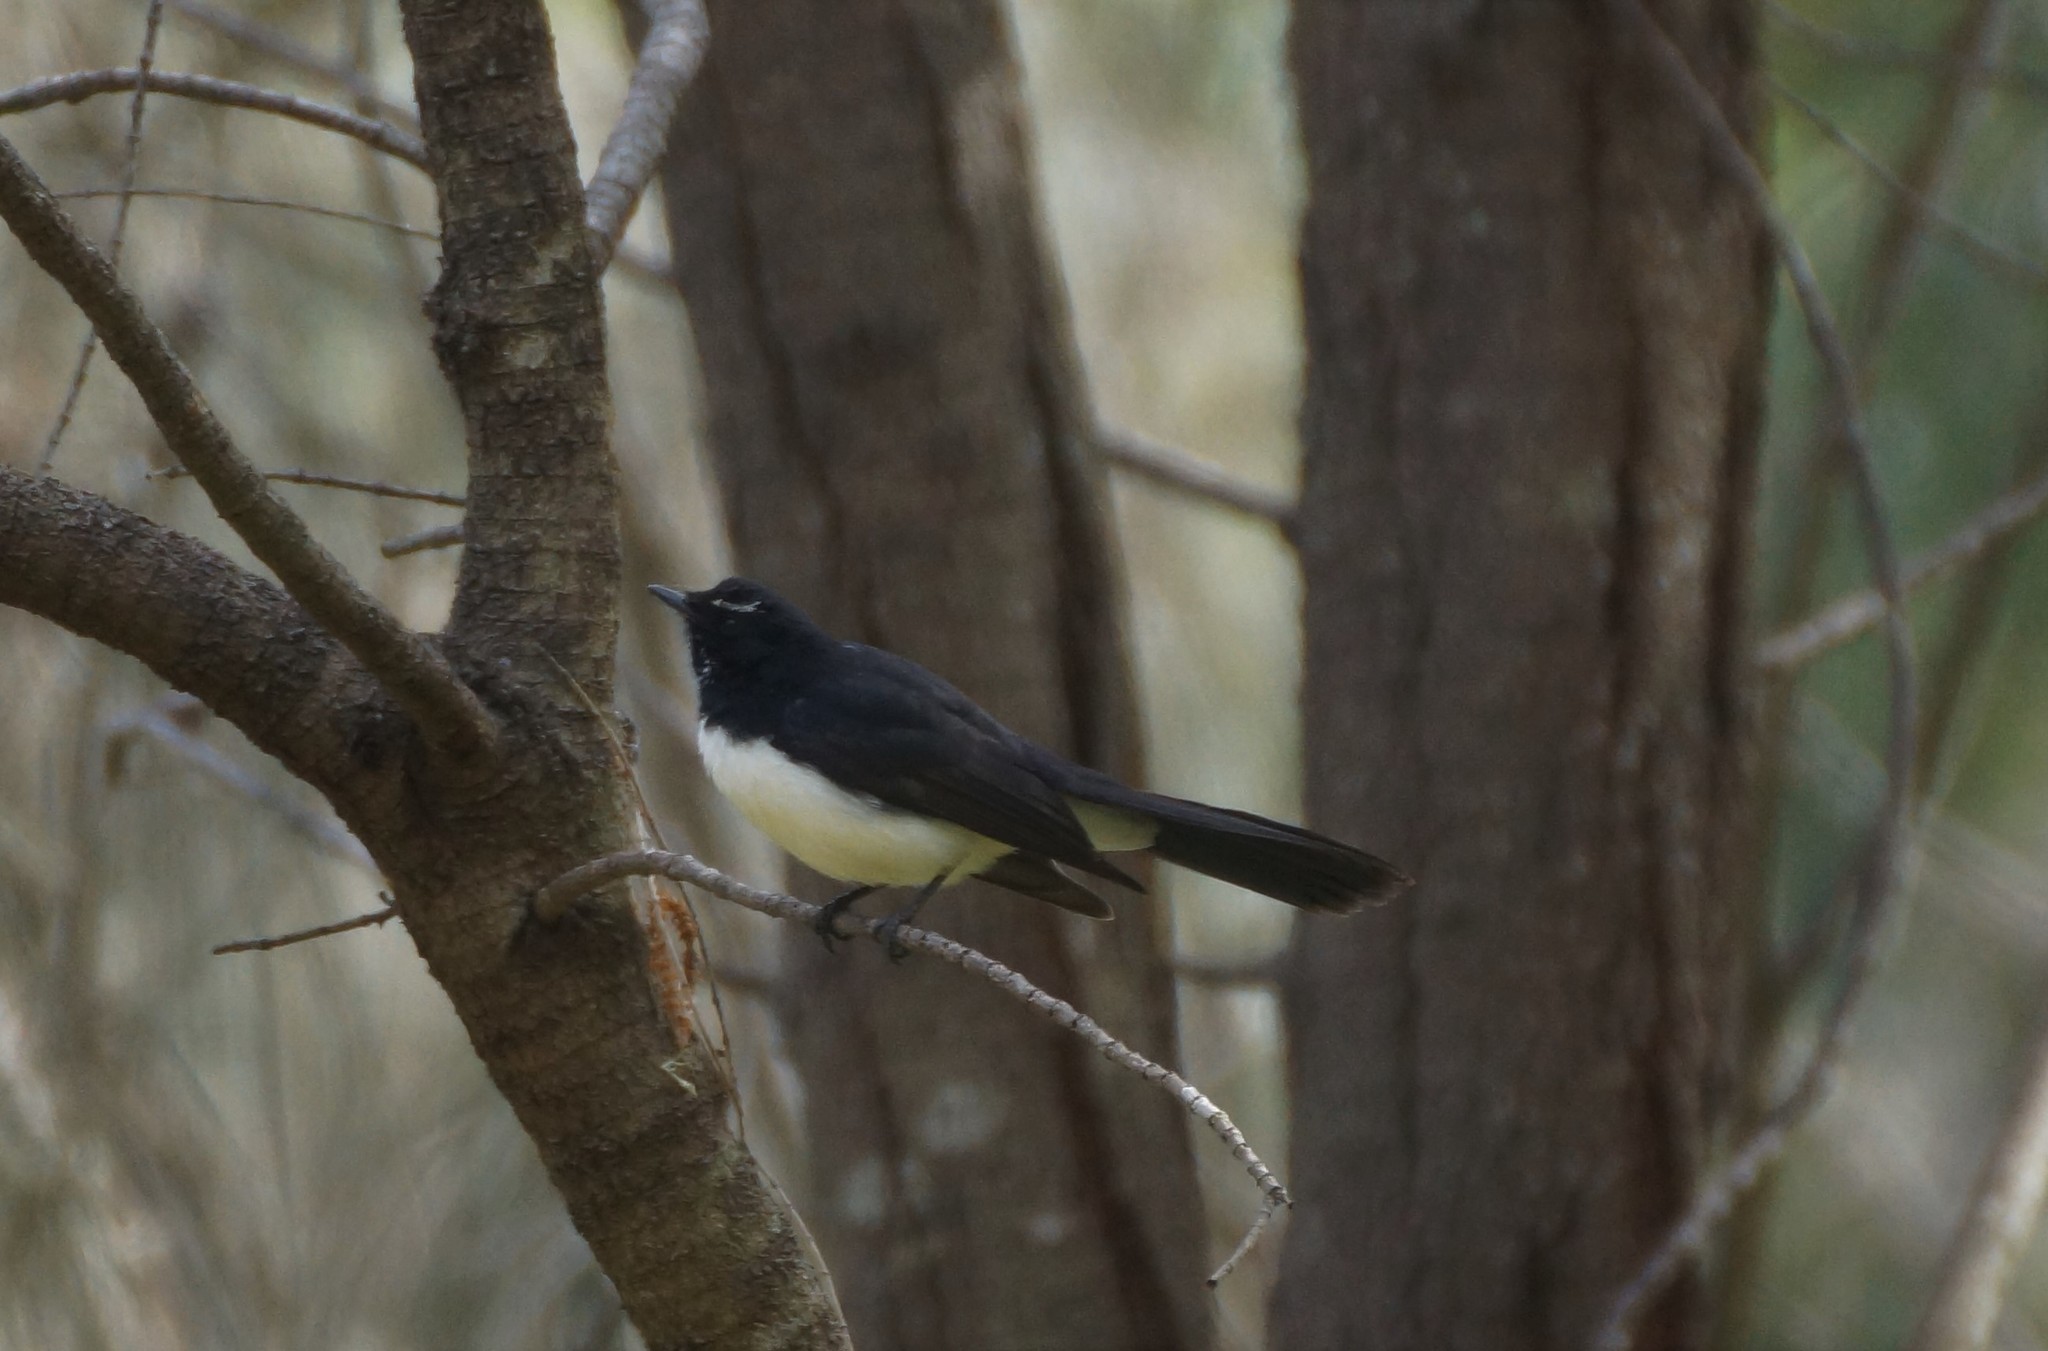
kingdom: Animalia
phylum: Chordata
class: Aves
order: Passeriformes
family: Rhipiduridae
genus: Rhipidura
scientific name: Rhipidura leucophrys
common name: Willie wagtail
